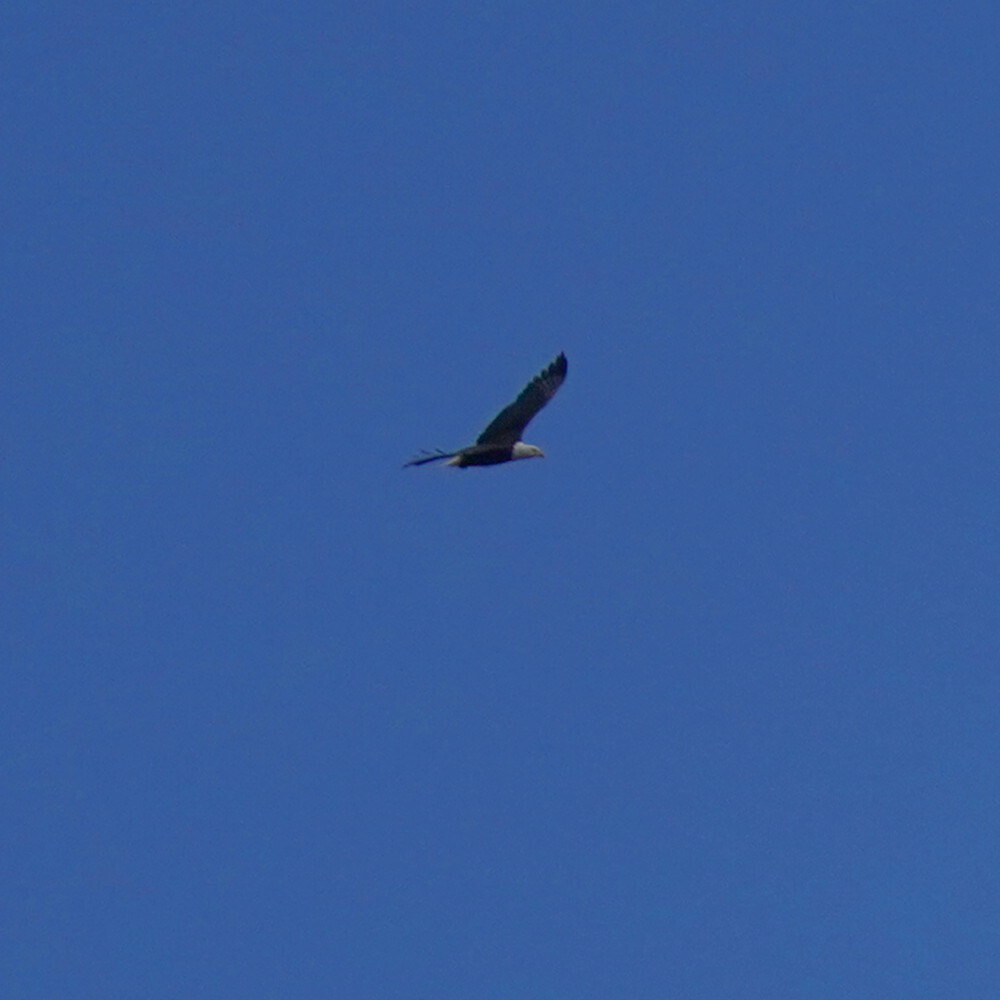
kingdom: Animalia
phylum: Chordata
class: Aves
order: Accipitriformes
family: Accipitridae
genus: Haliaeetus
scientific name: Haliaeetus leucocephalus
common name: Bald eagle
